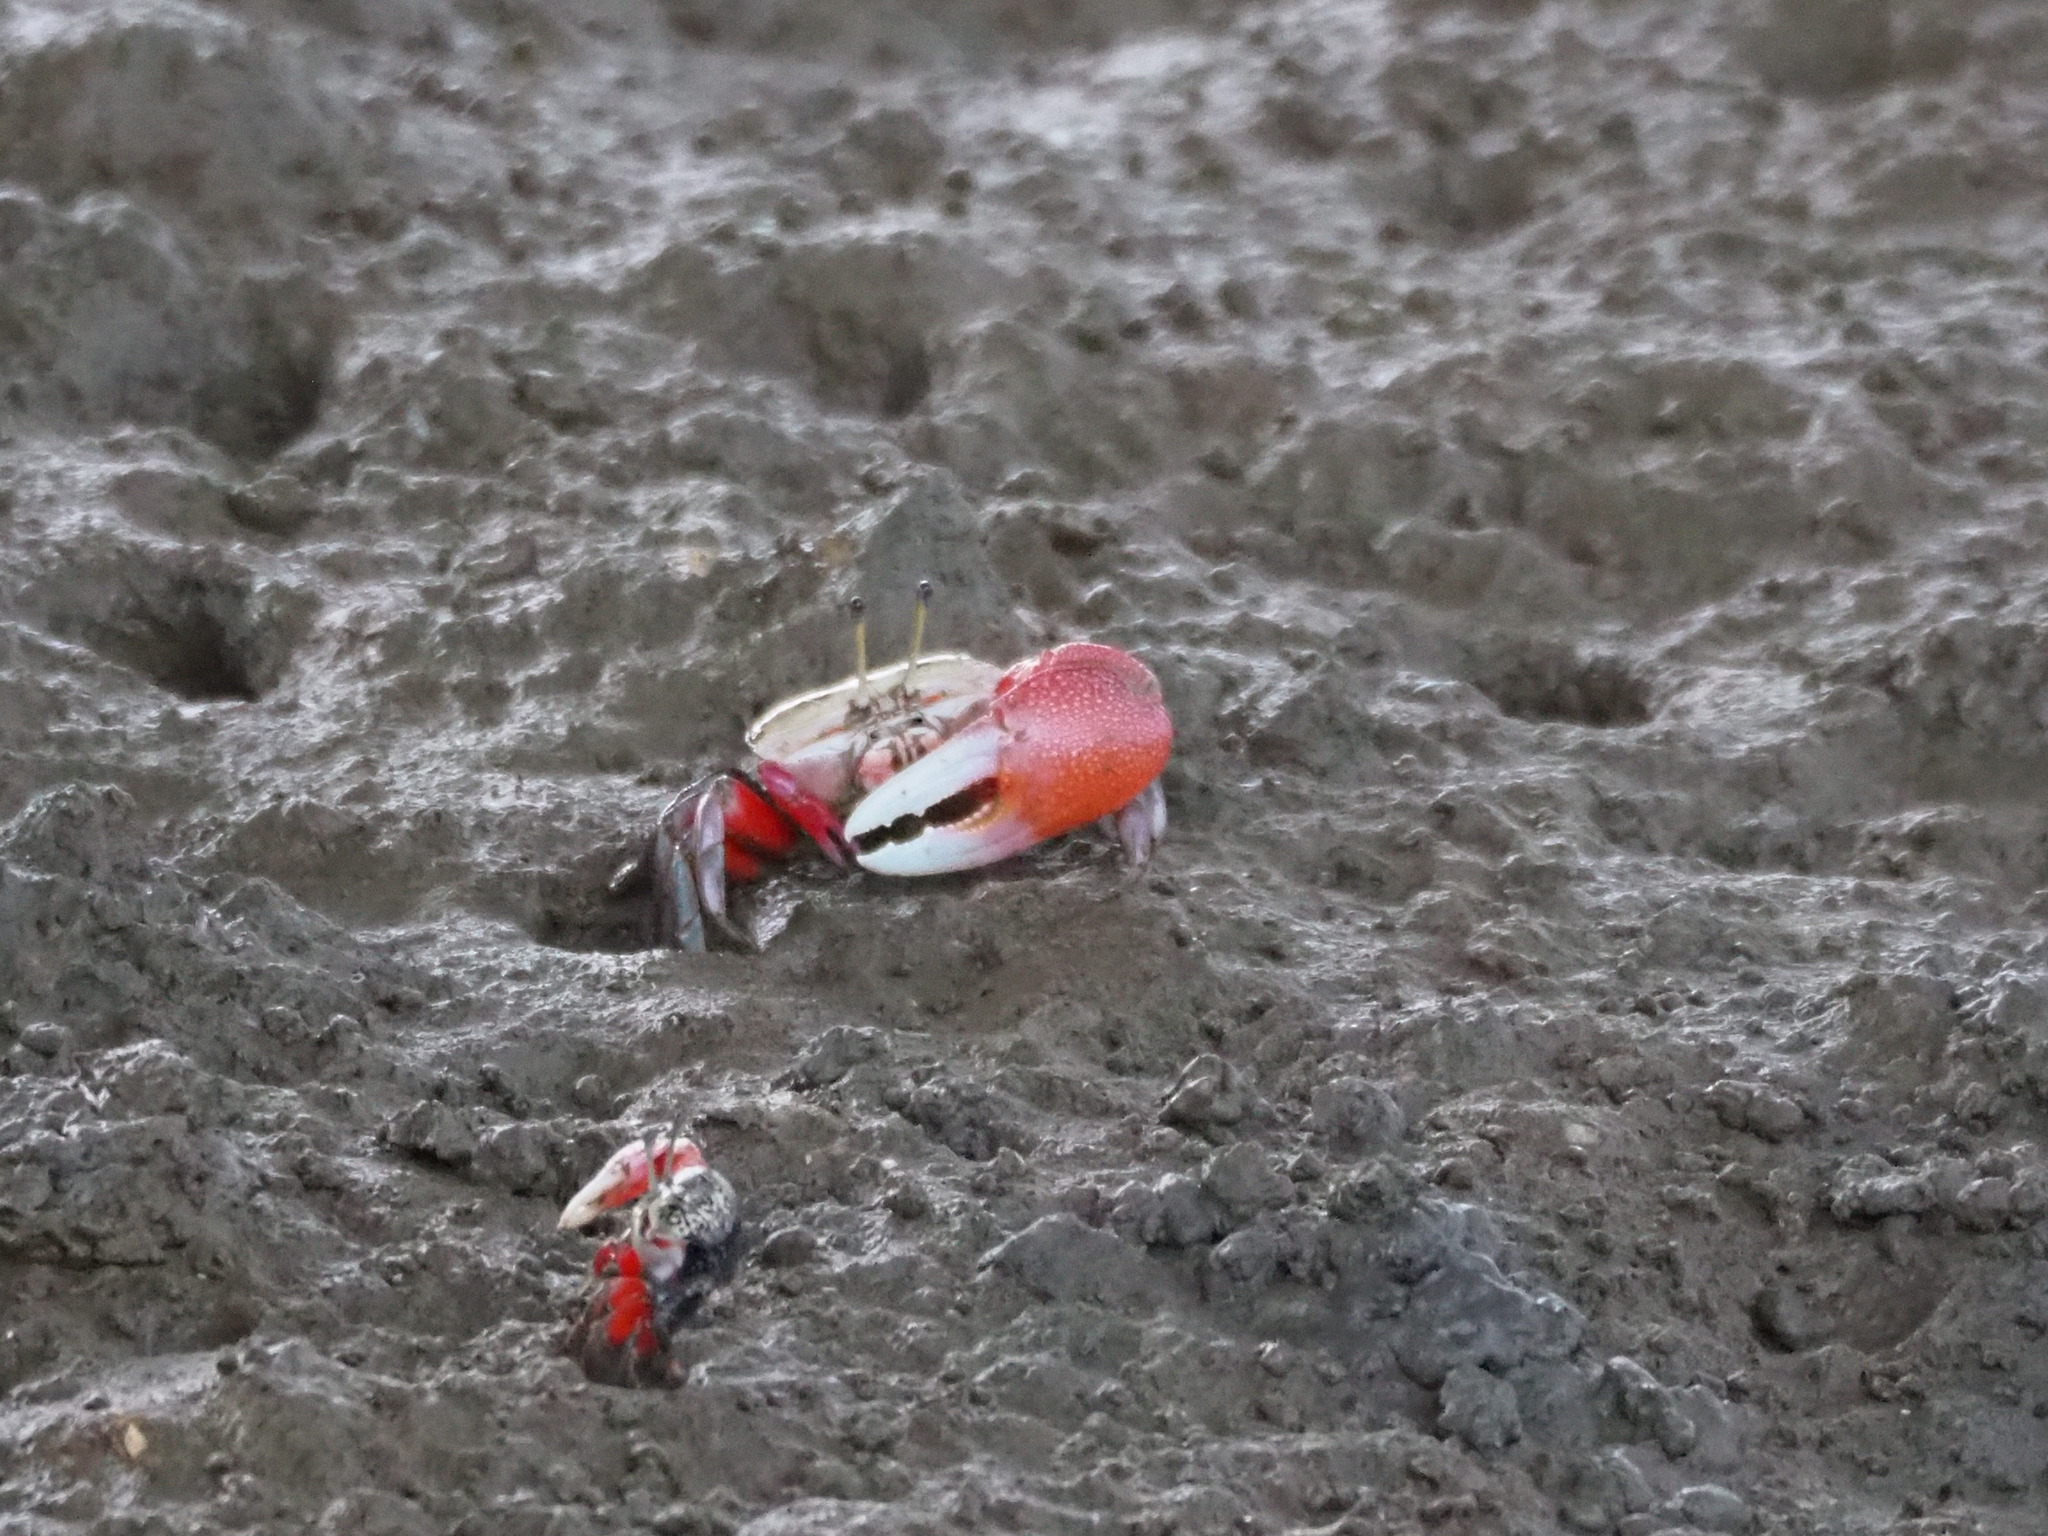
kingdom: Animalia
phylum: Arthropoda
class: Malacostraca
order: Decapoda
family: Ocypodidae
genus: Tubuca
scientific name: Tubuca arcuata
